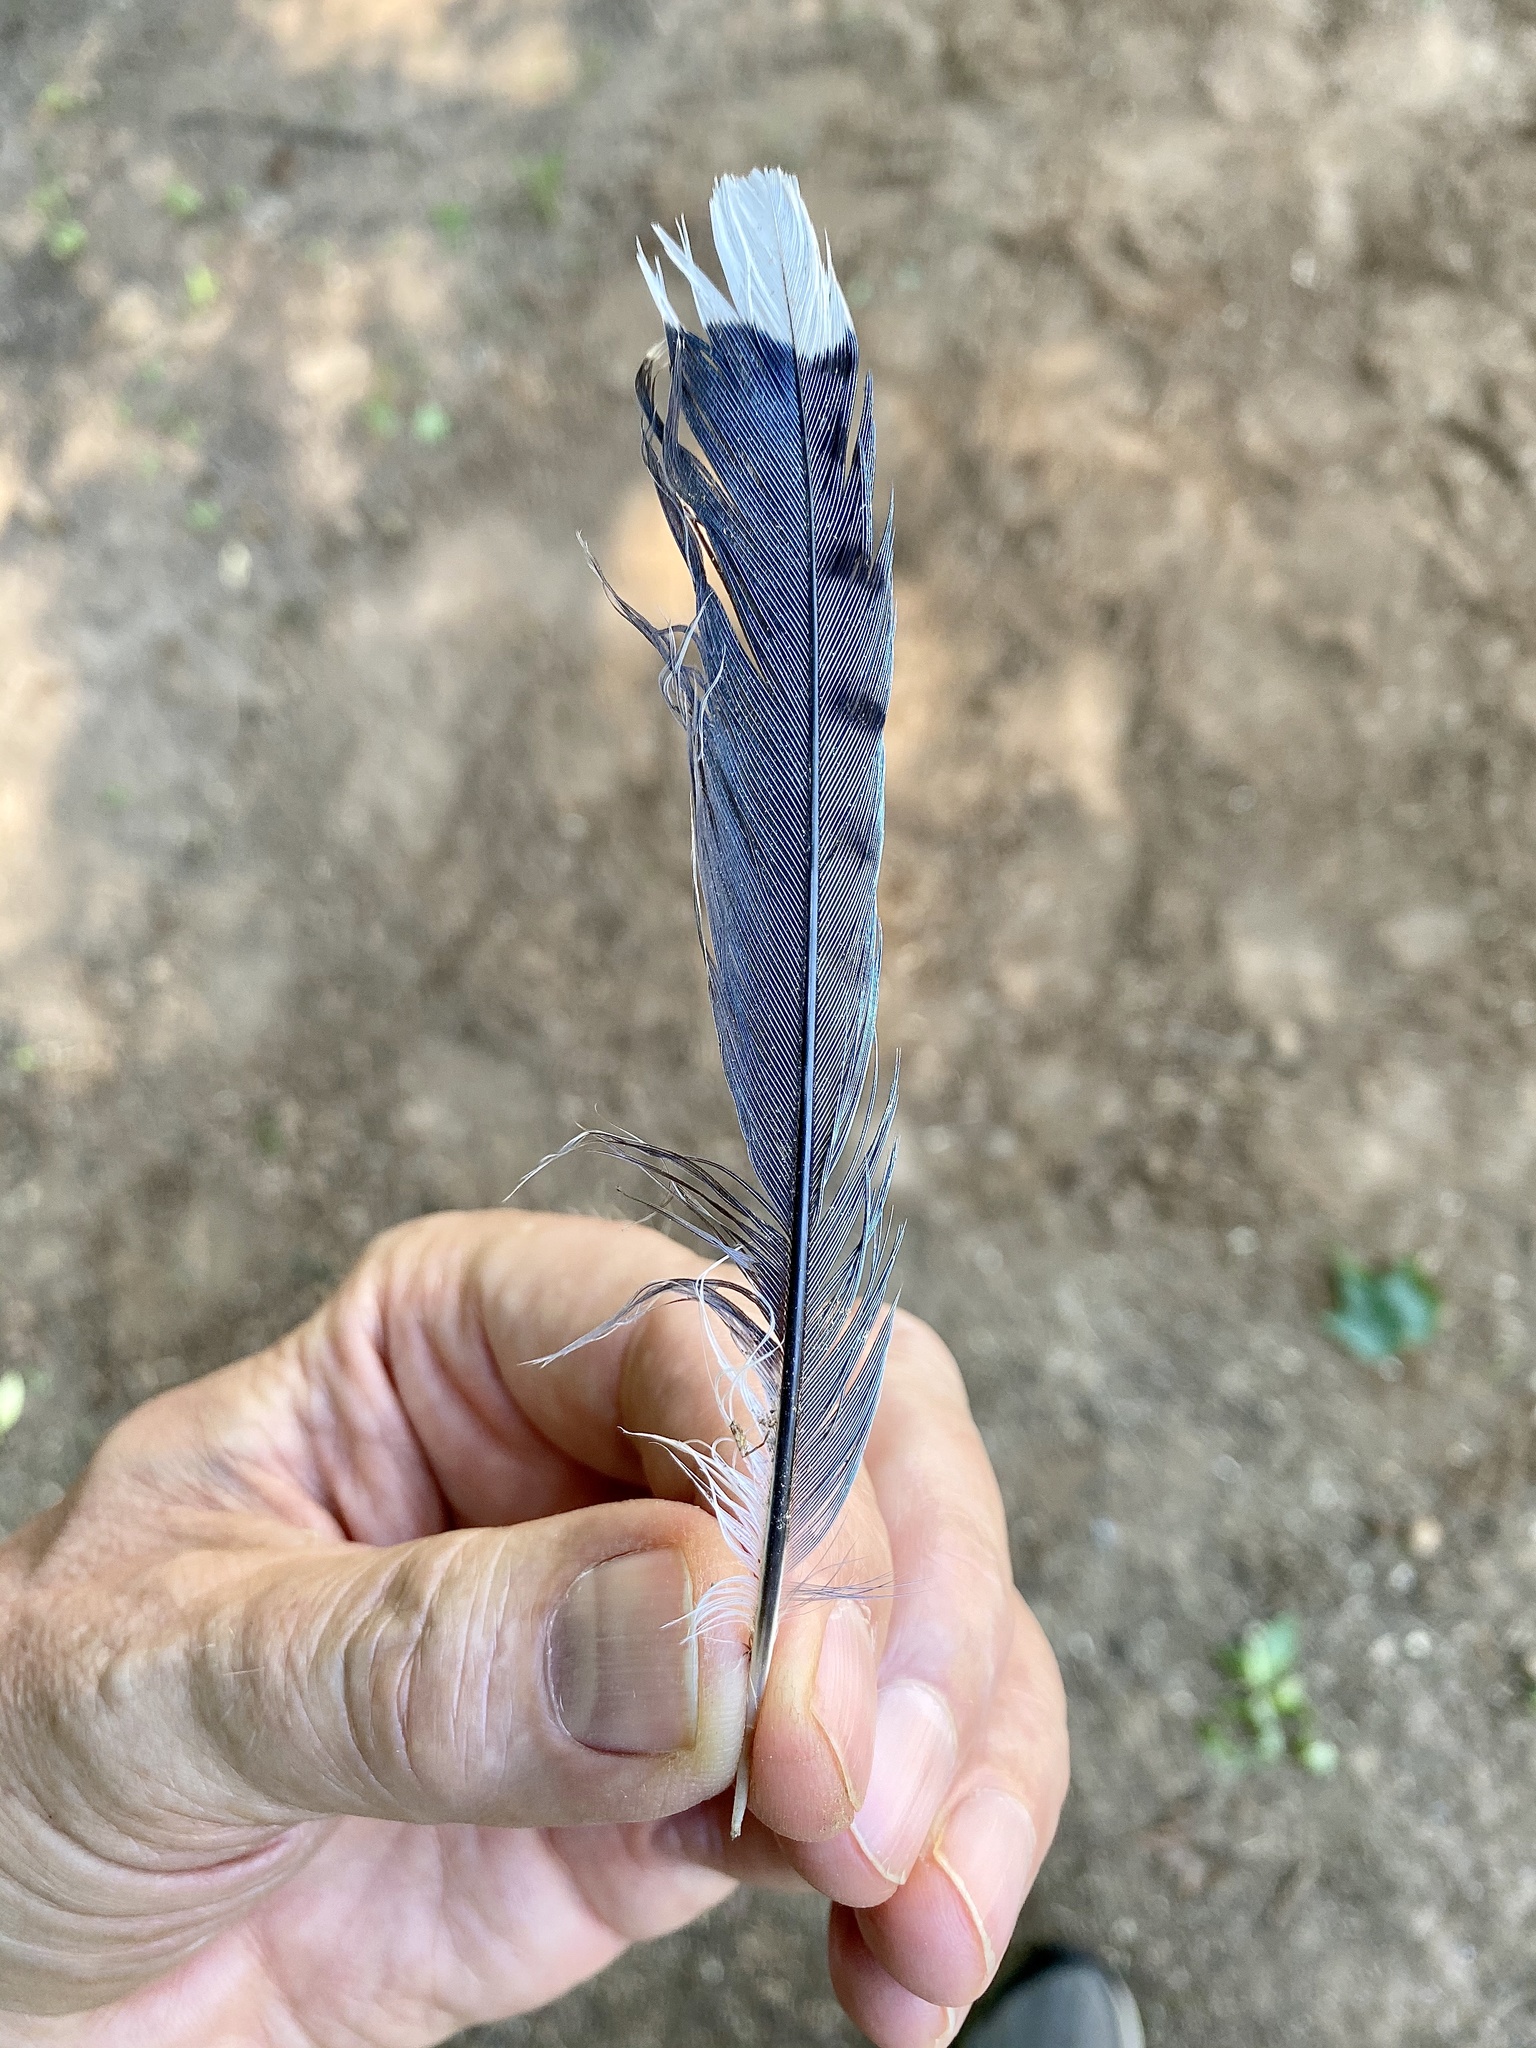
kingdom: Animalia
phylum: Chordata
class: Aves
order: Passeriformes
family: Corvidae
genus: Cyanocitta
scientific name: Cyanocitta cristata
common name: Blue jay
